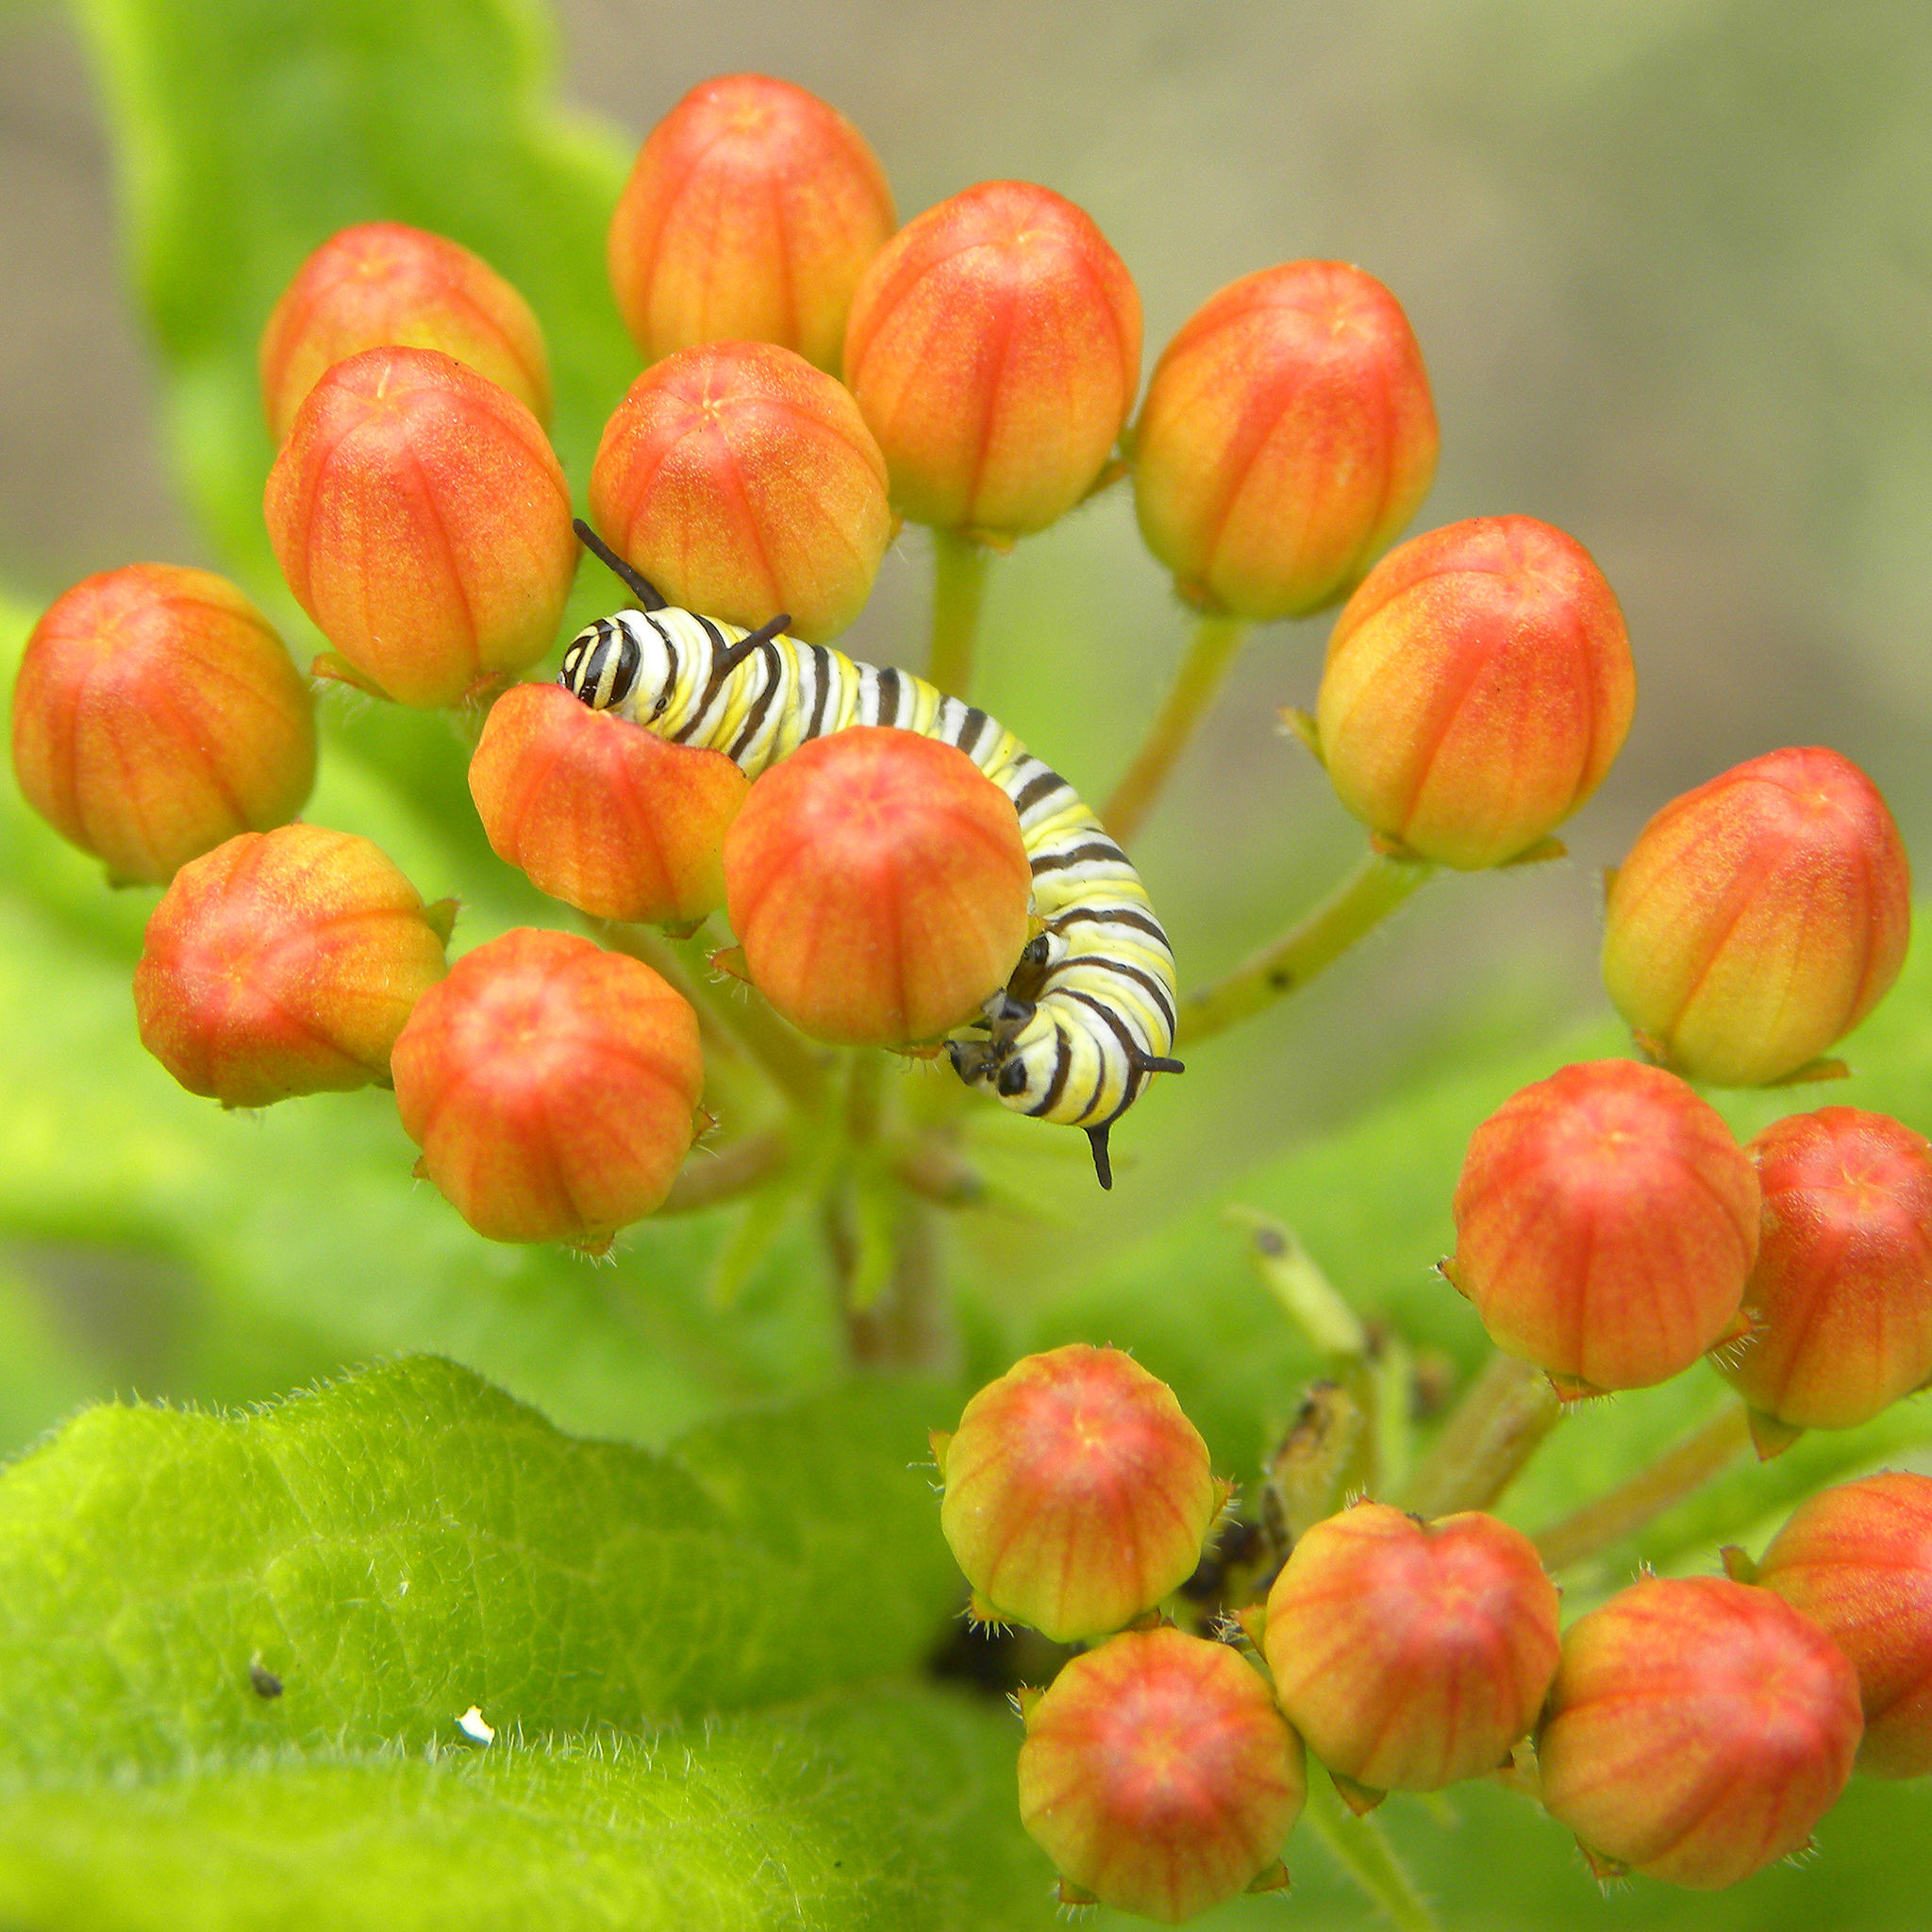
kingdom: Animalia
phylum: Arthropoda
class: Insecta
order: Lepidoptera
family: Nymphalidae
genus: Danaus
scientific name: Danaus plexippus
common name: Monarch
